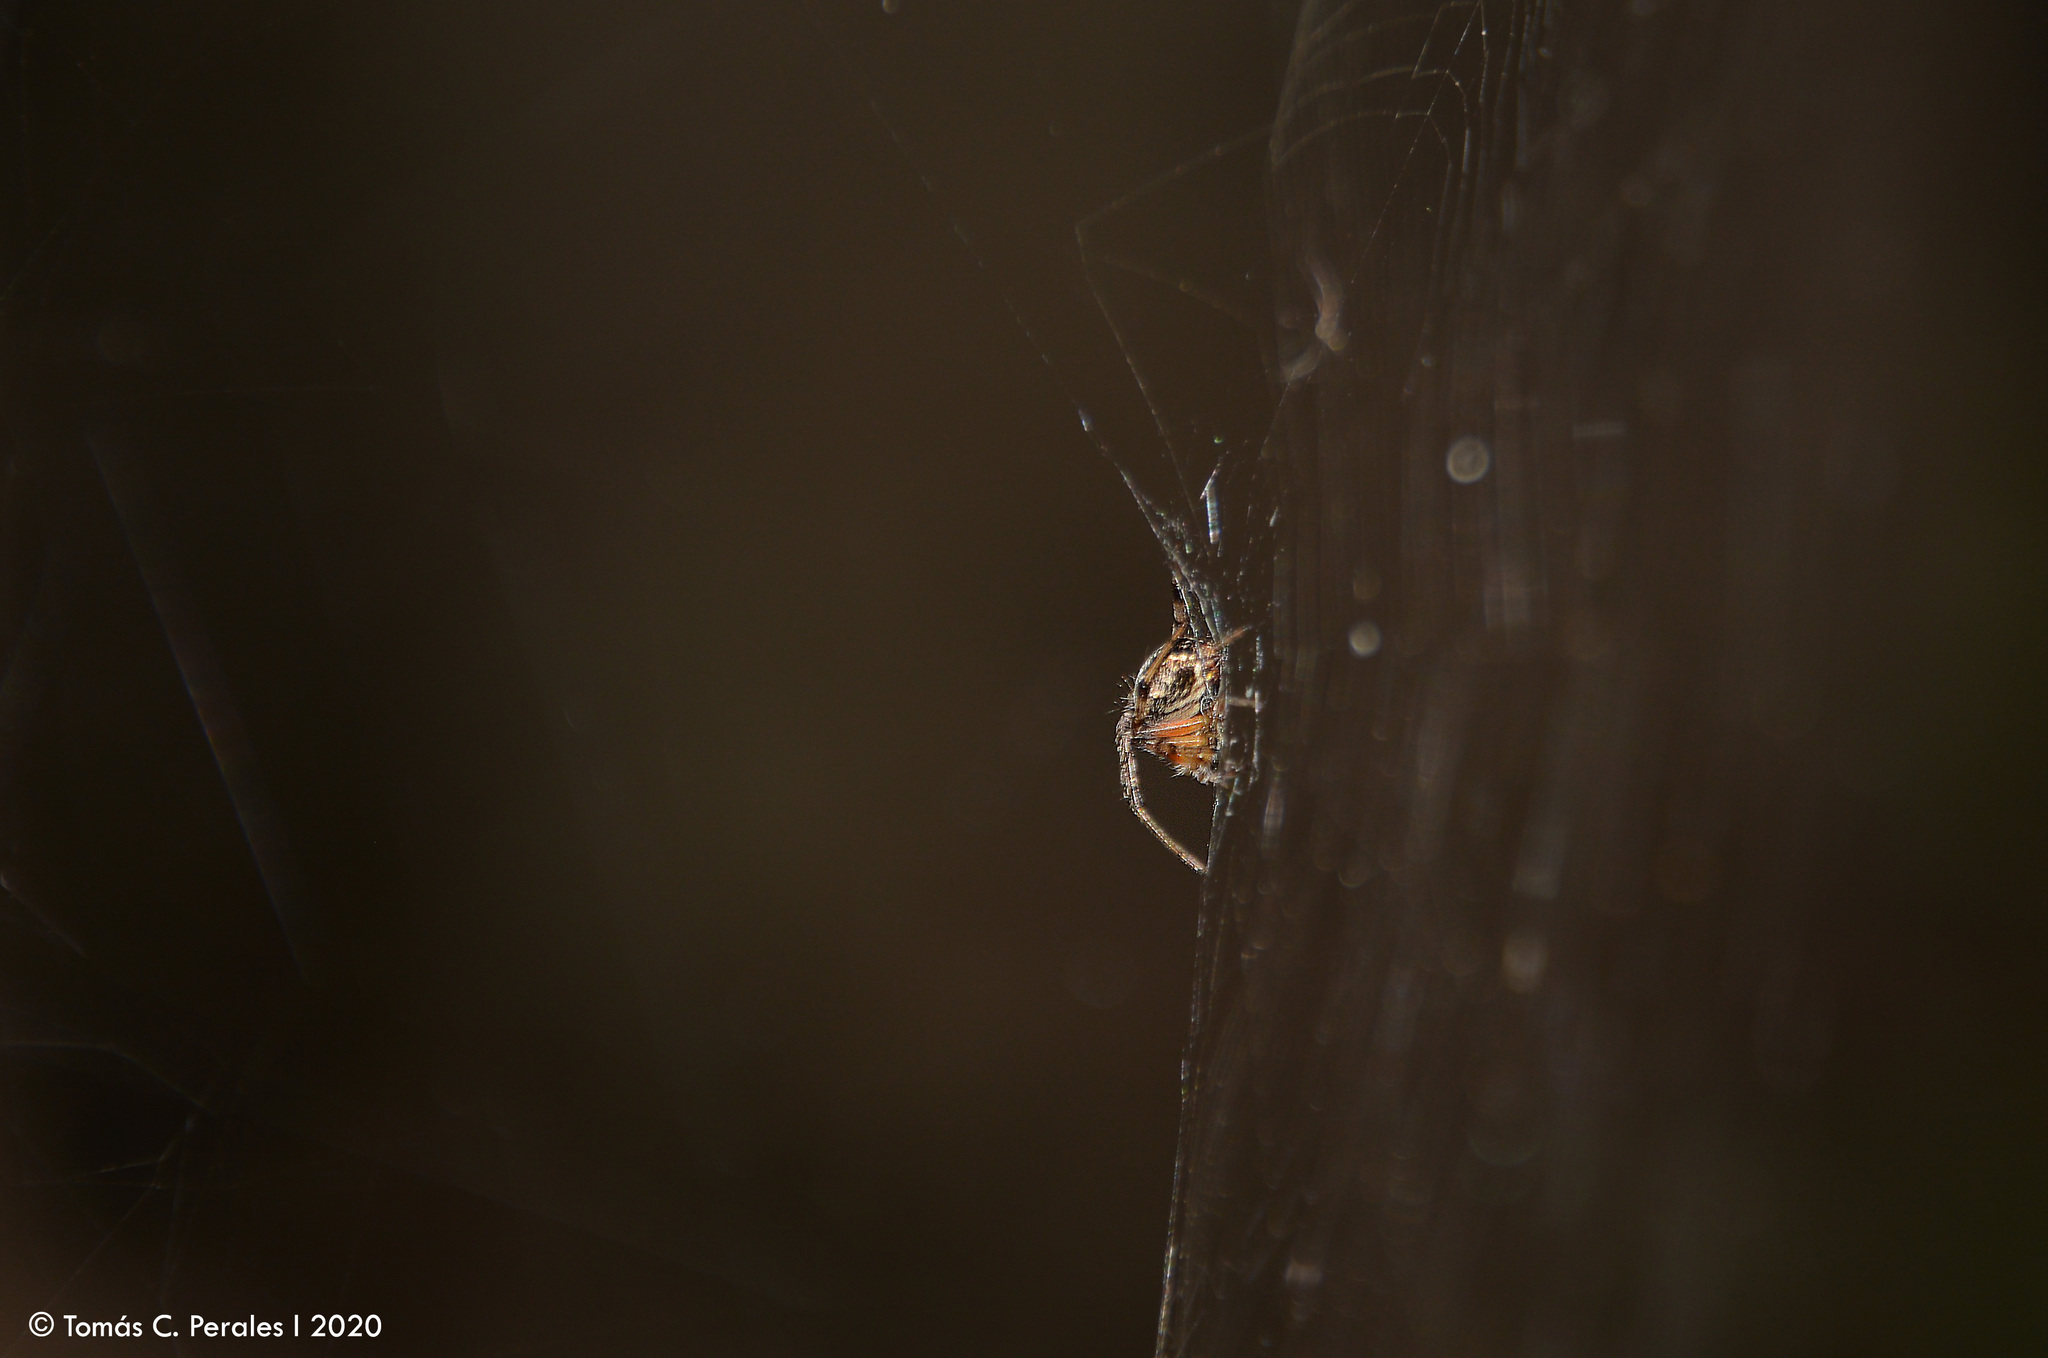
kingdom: Animalia
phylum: Arthropoda
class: Arachnida
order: Araneae
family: Araneidae
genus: Metepeira
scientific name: Metepeira
